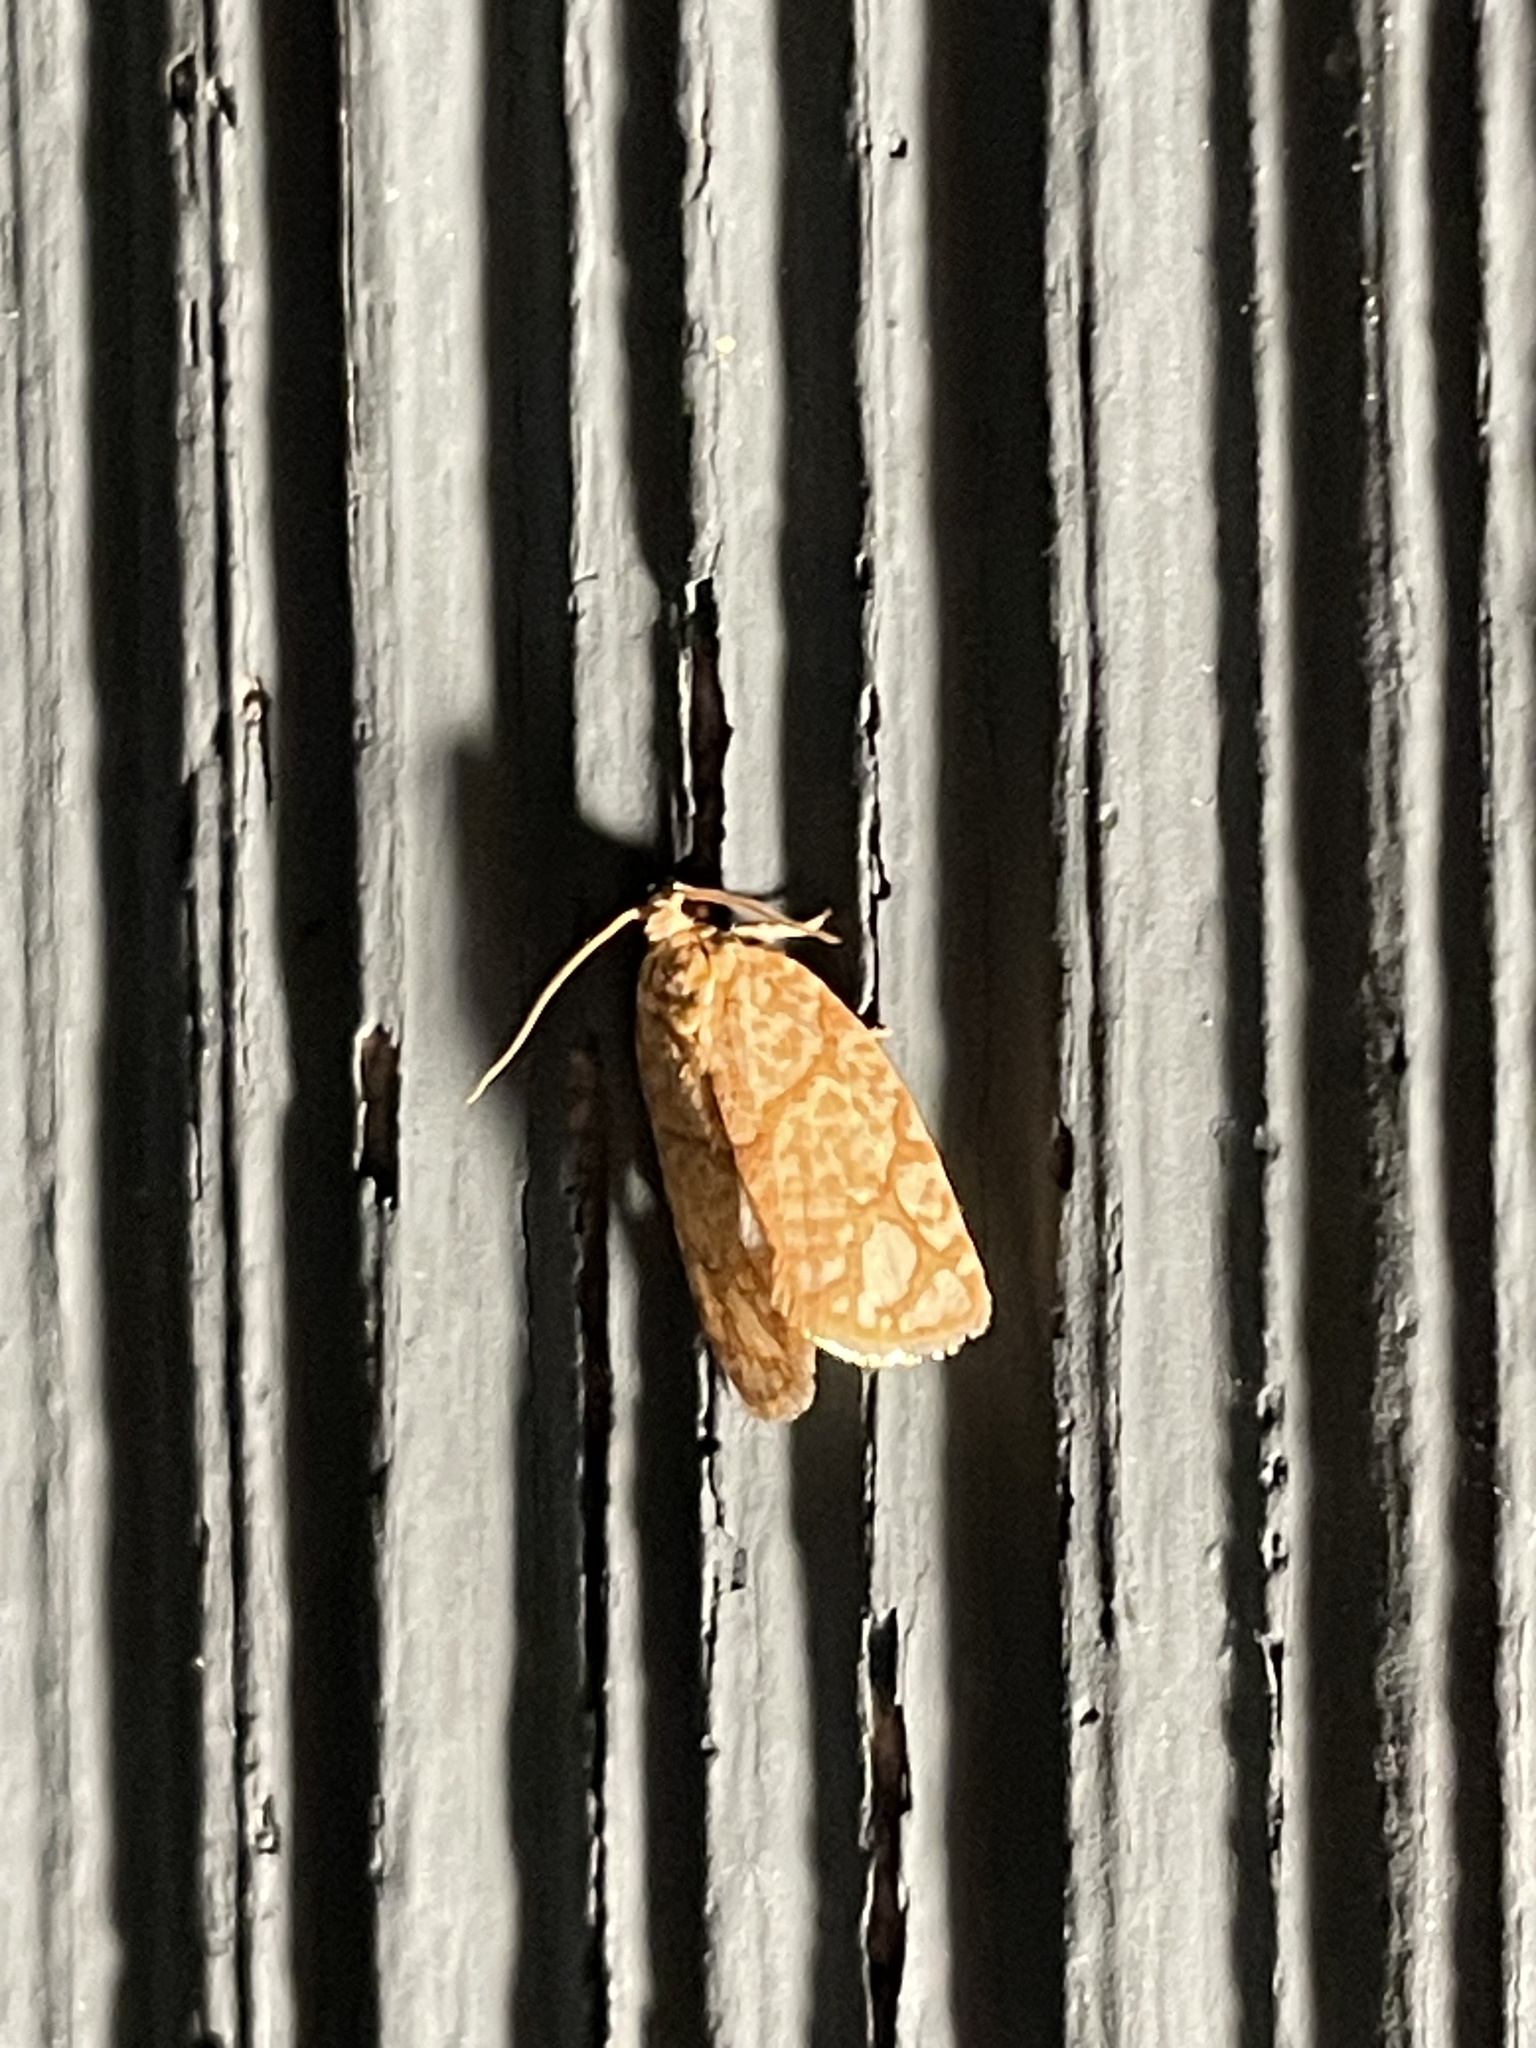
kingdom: Animalia
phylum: Arthropoda
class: Insecta
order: Lepidoptera
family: Tortricidae
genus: Argyrotaenia
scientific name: Argyrotaenia quercifoliana
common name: Yellow-winged oak leafroller moth
